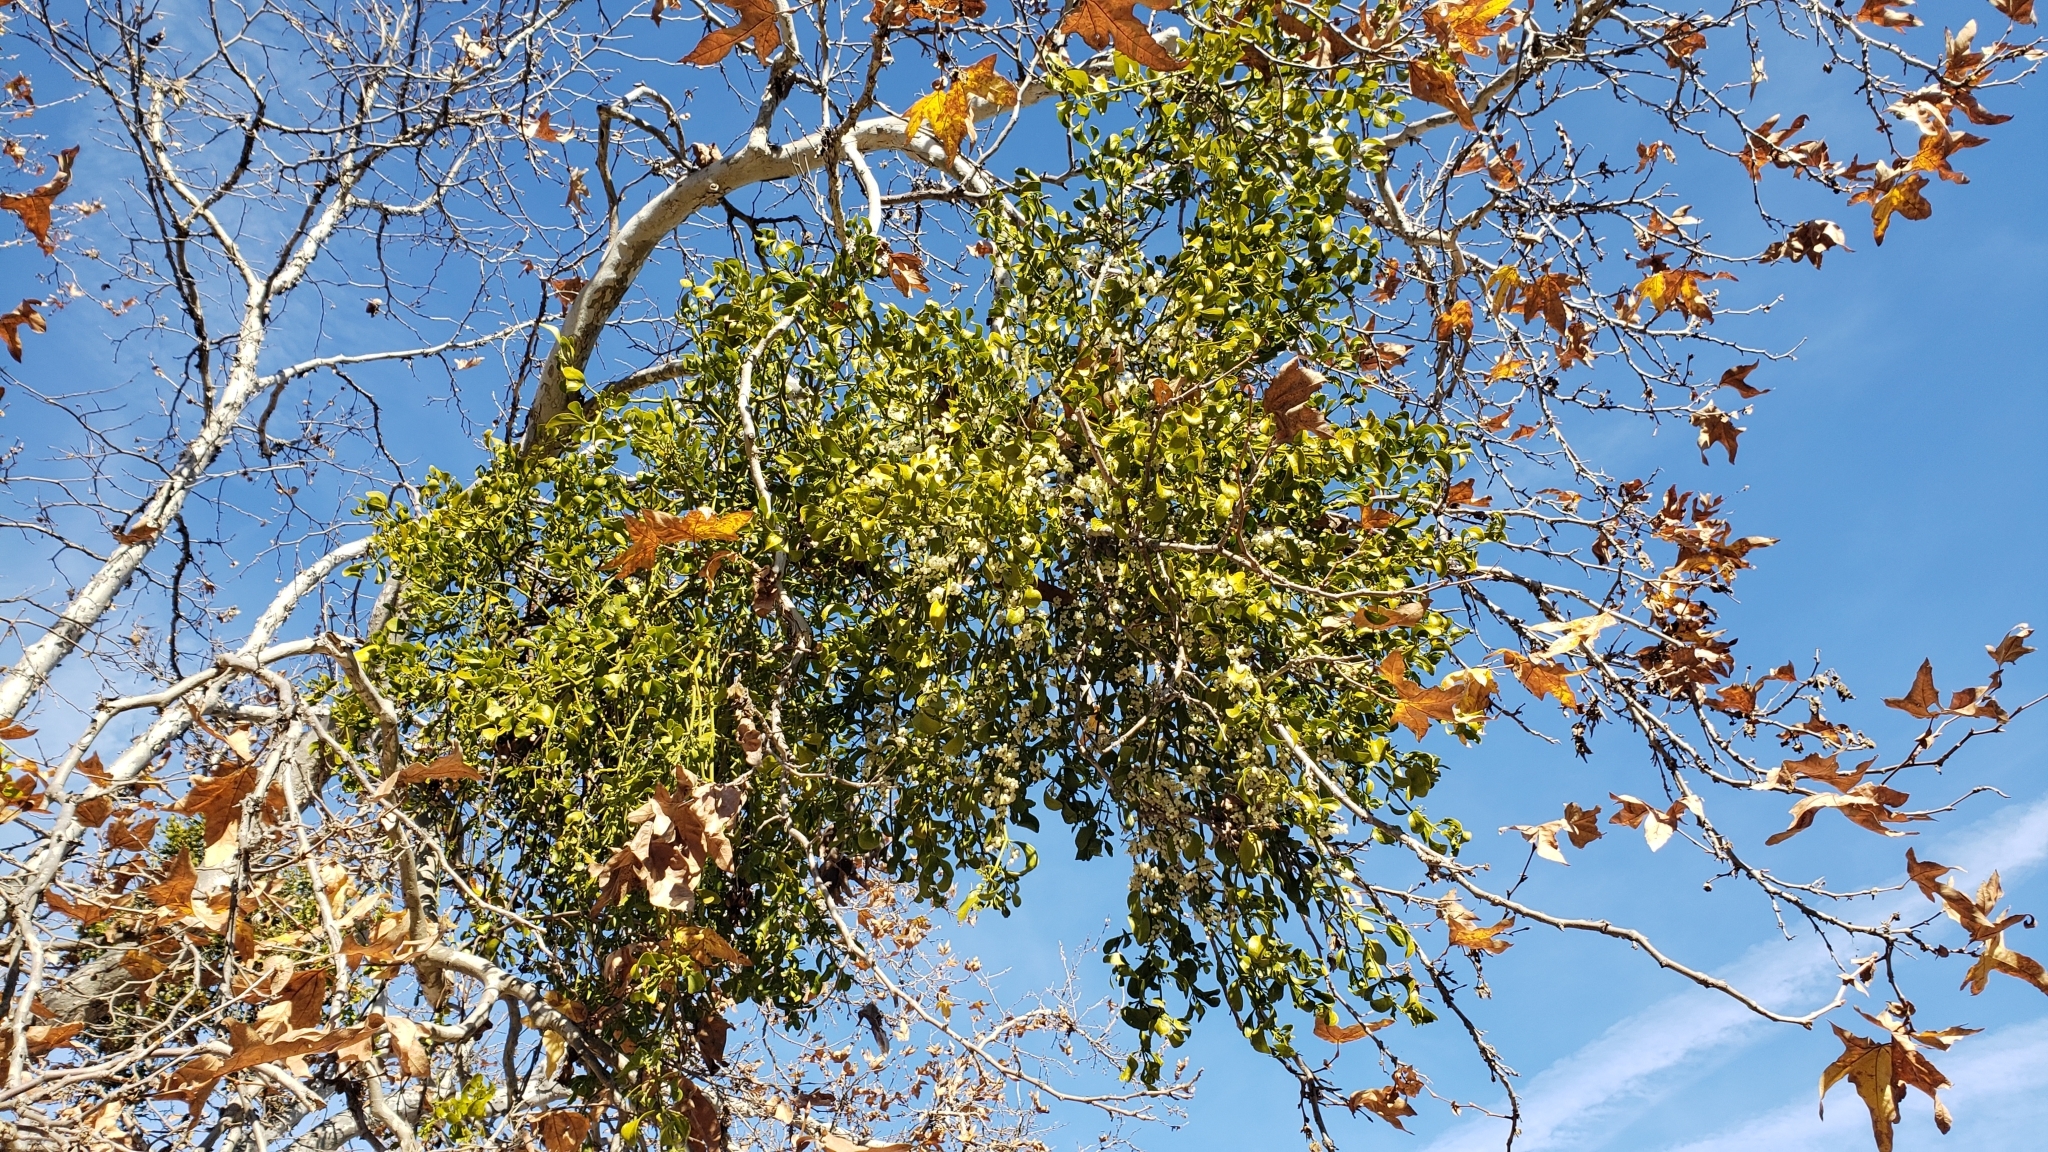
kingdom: Plantae
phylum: Tracheophyta
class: Magnoliopsida
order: Santalales
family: Viscaceae
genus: Phoradendron
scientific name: Phoradendron
